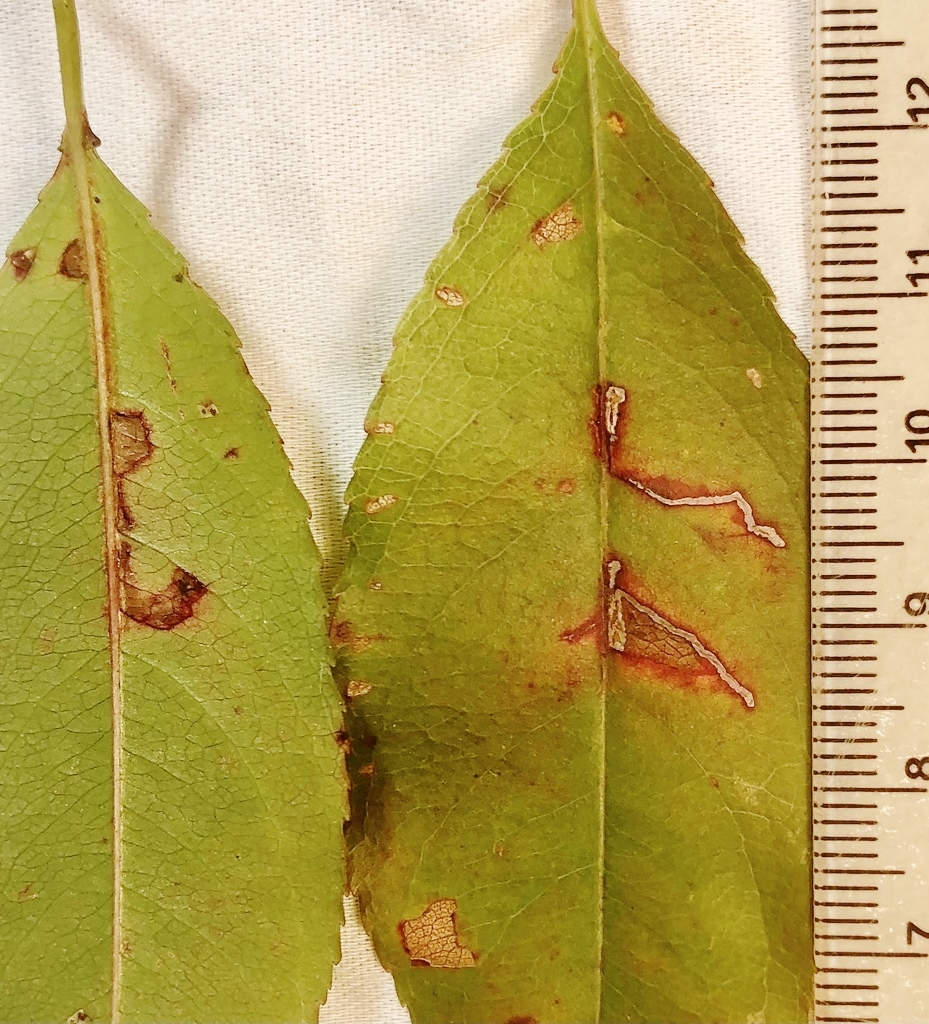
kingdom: Animalia
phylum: Arthropoda
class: Insecta
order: Lepidoptera
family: Bucculatricidae
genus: Bucculatrix
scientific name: Bucculatrix pomifoliella
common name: Apple skeletonizer moth
